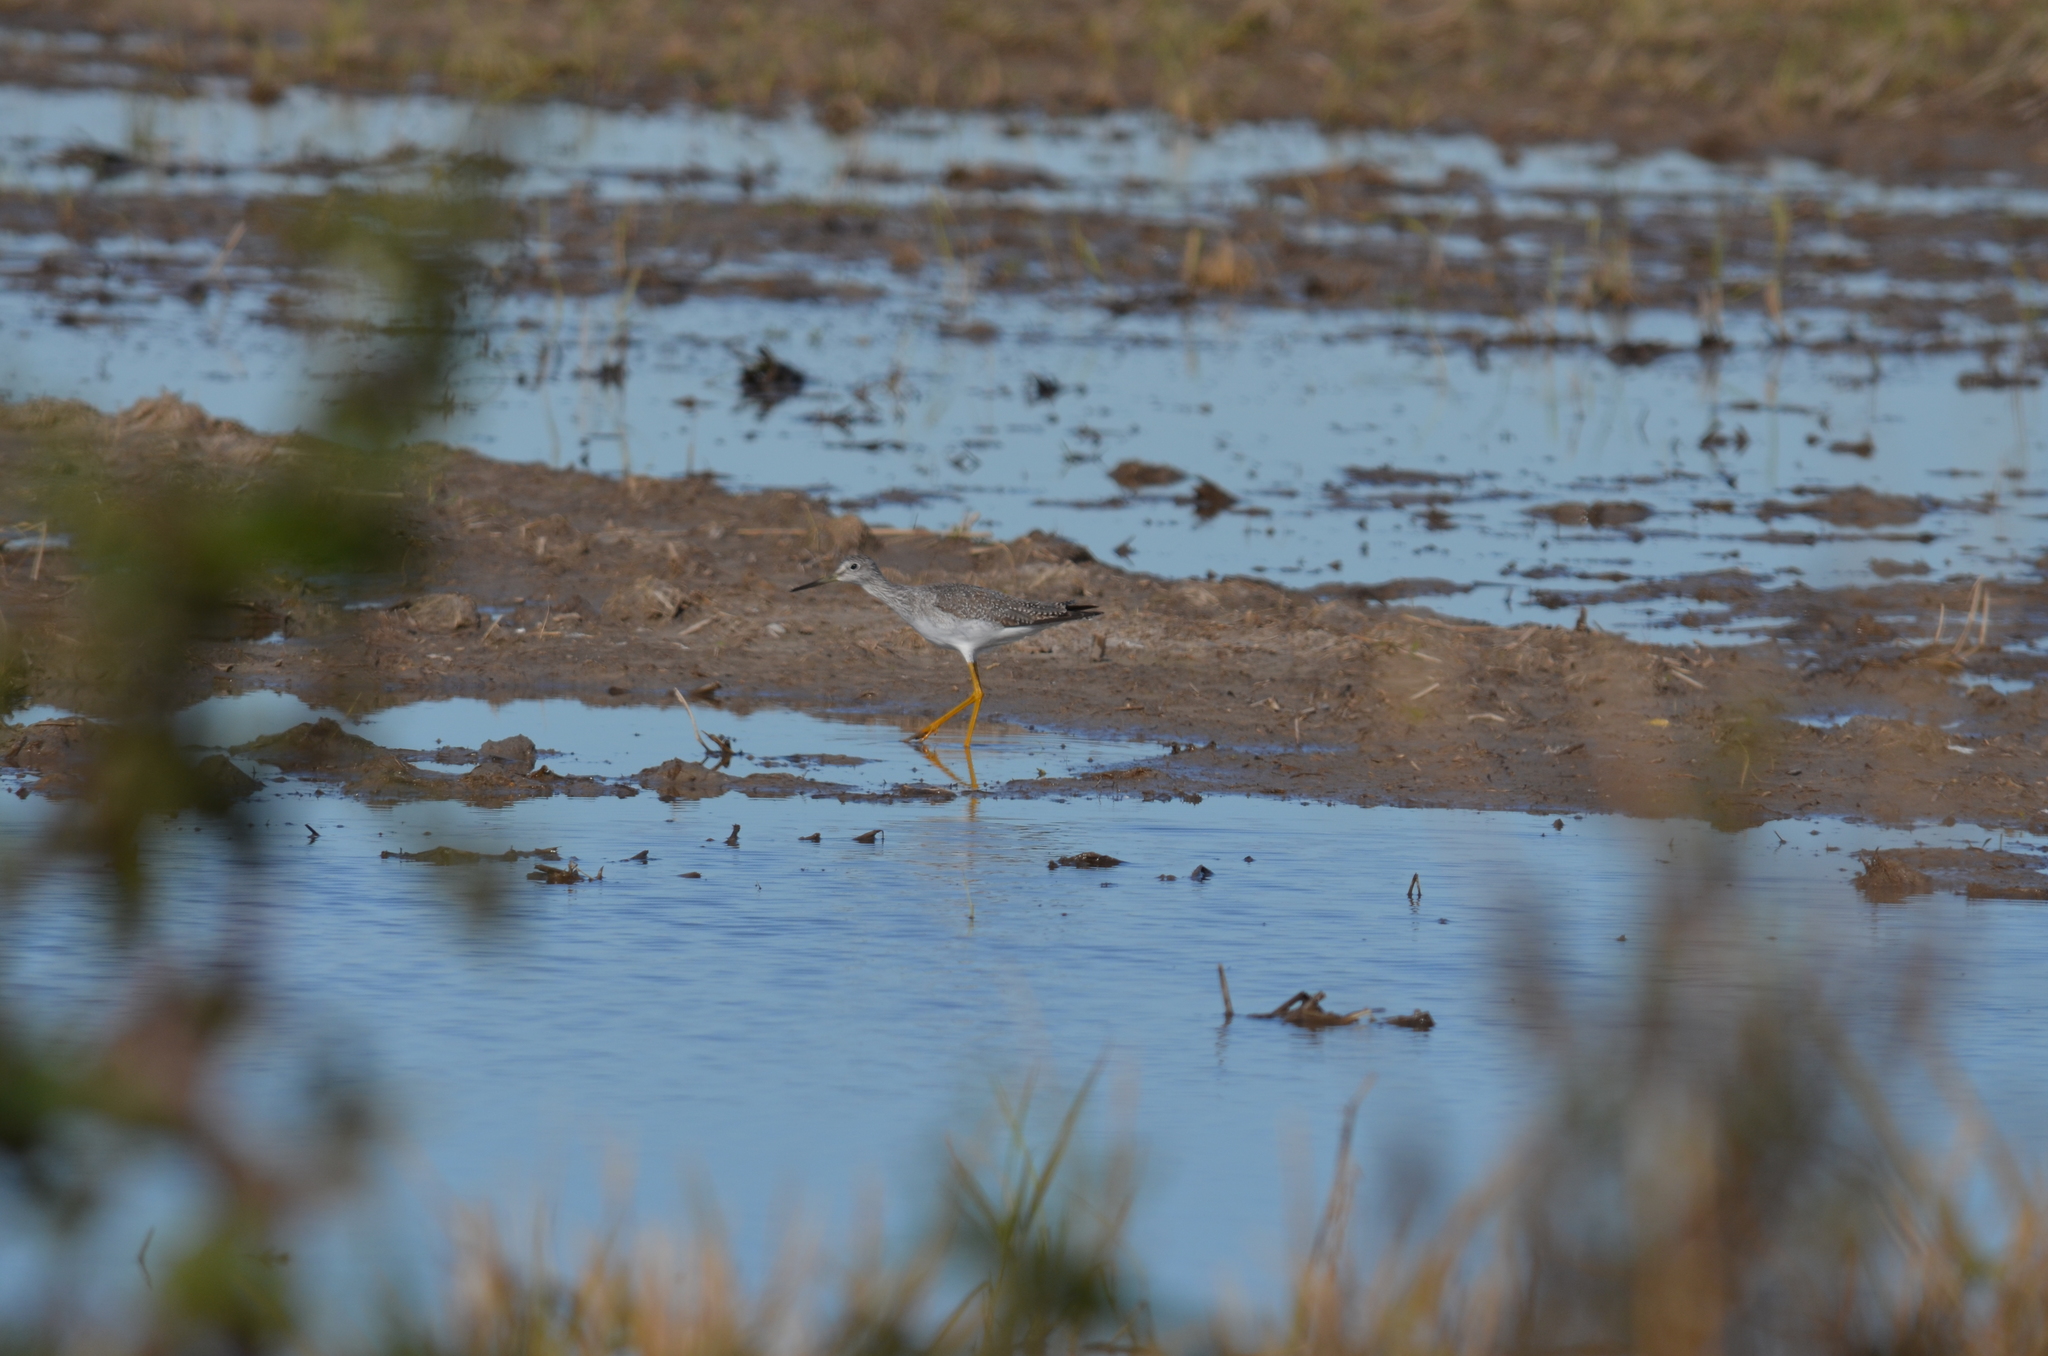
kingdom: Animalia
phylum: Chordata
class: Aves
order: Charadriiformes
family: Scolopacidae
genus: Tringa
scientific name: Tringa melanoleuca
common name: Greater yellowlegs
